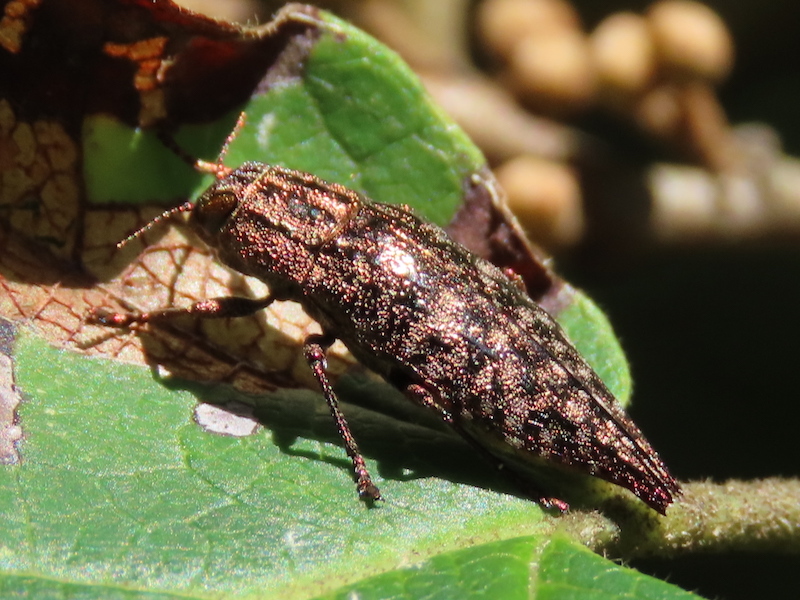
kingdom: Animalia
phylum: Arthropoda
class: Insecta
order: Coleoptera
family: Buprestidae
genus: Dicerca
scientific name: Dicerca pugionata
